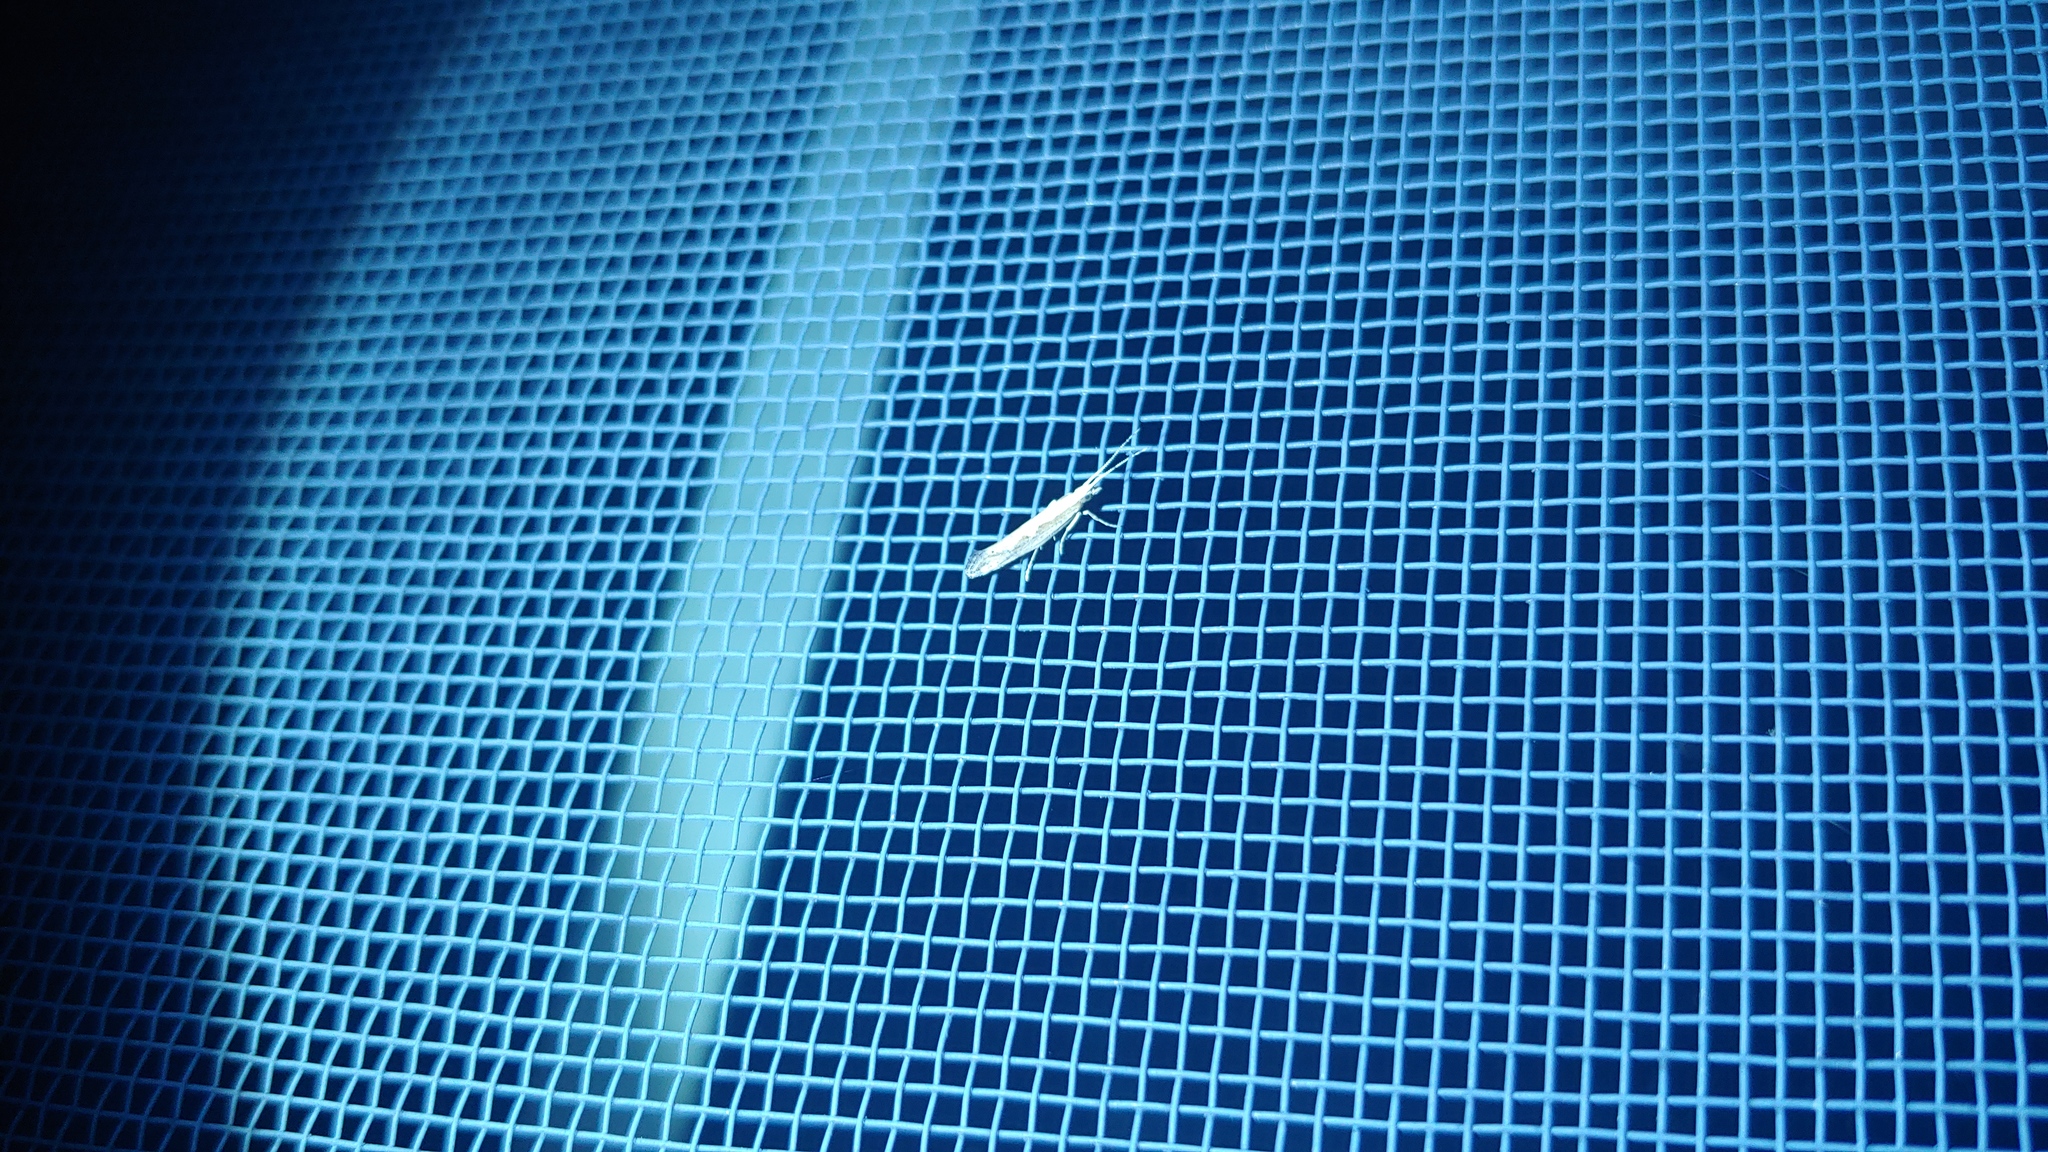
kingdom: Animalia
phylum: Arthropoda
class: Insecta
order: Lepidoptera
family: Plutellidae
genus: Plutella
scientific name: Plutella xylostella
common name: Diamond-back moth
